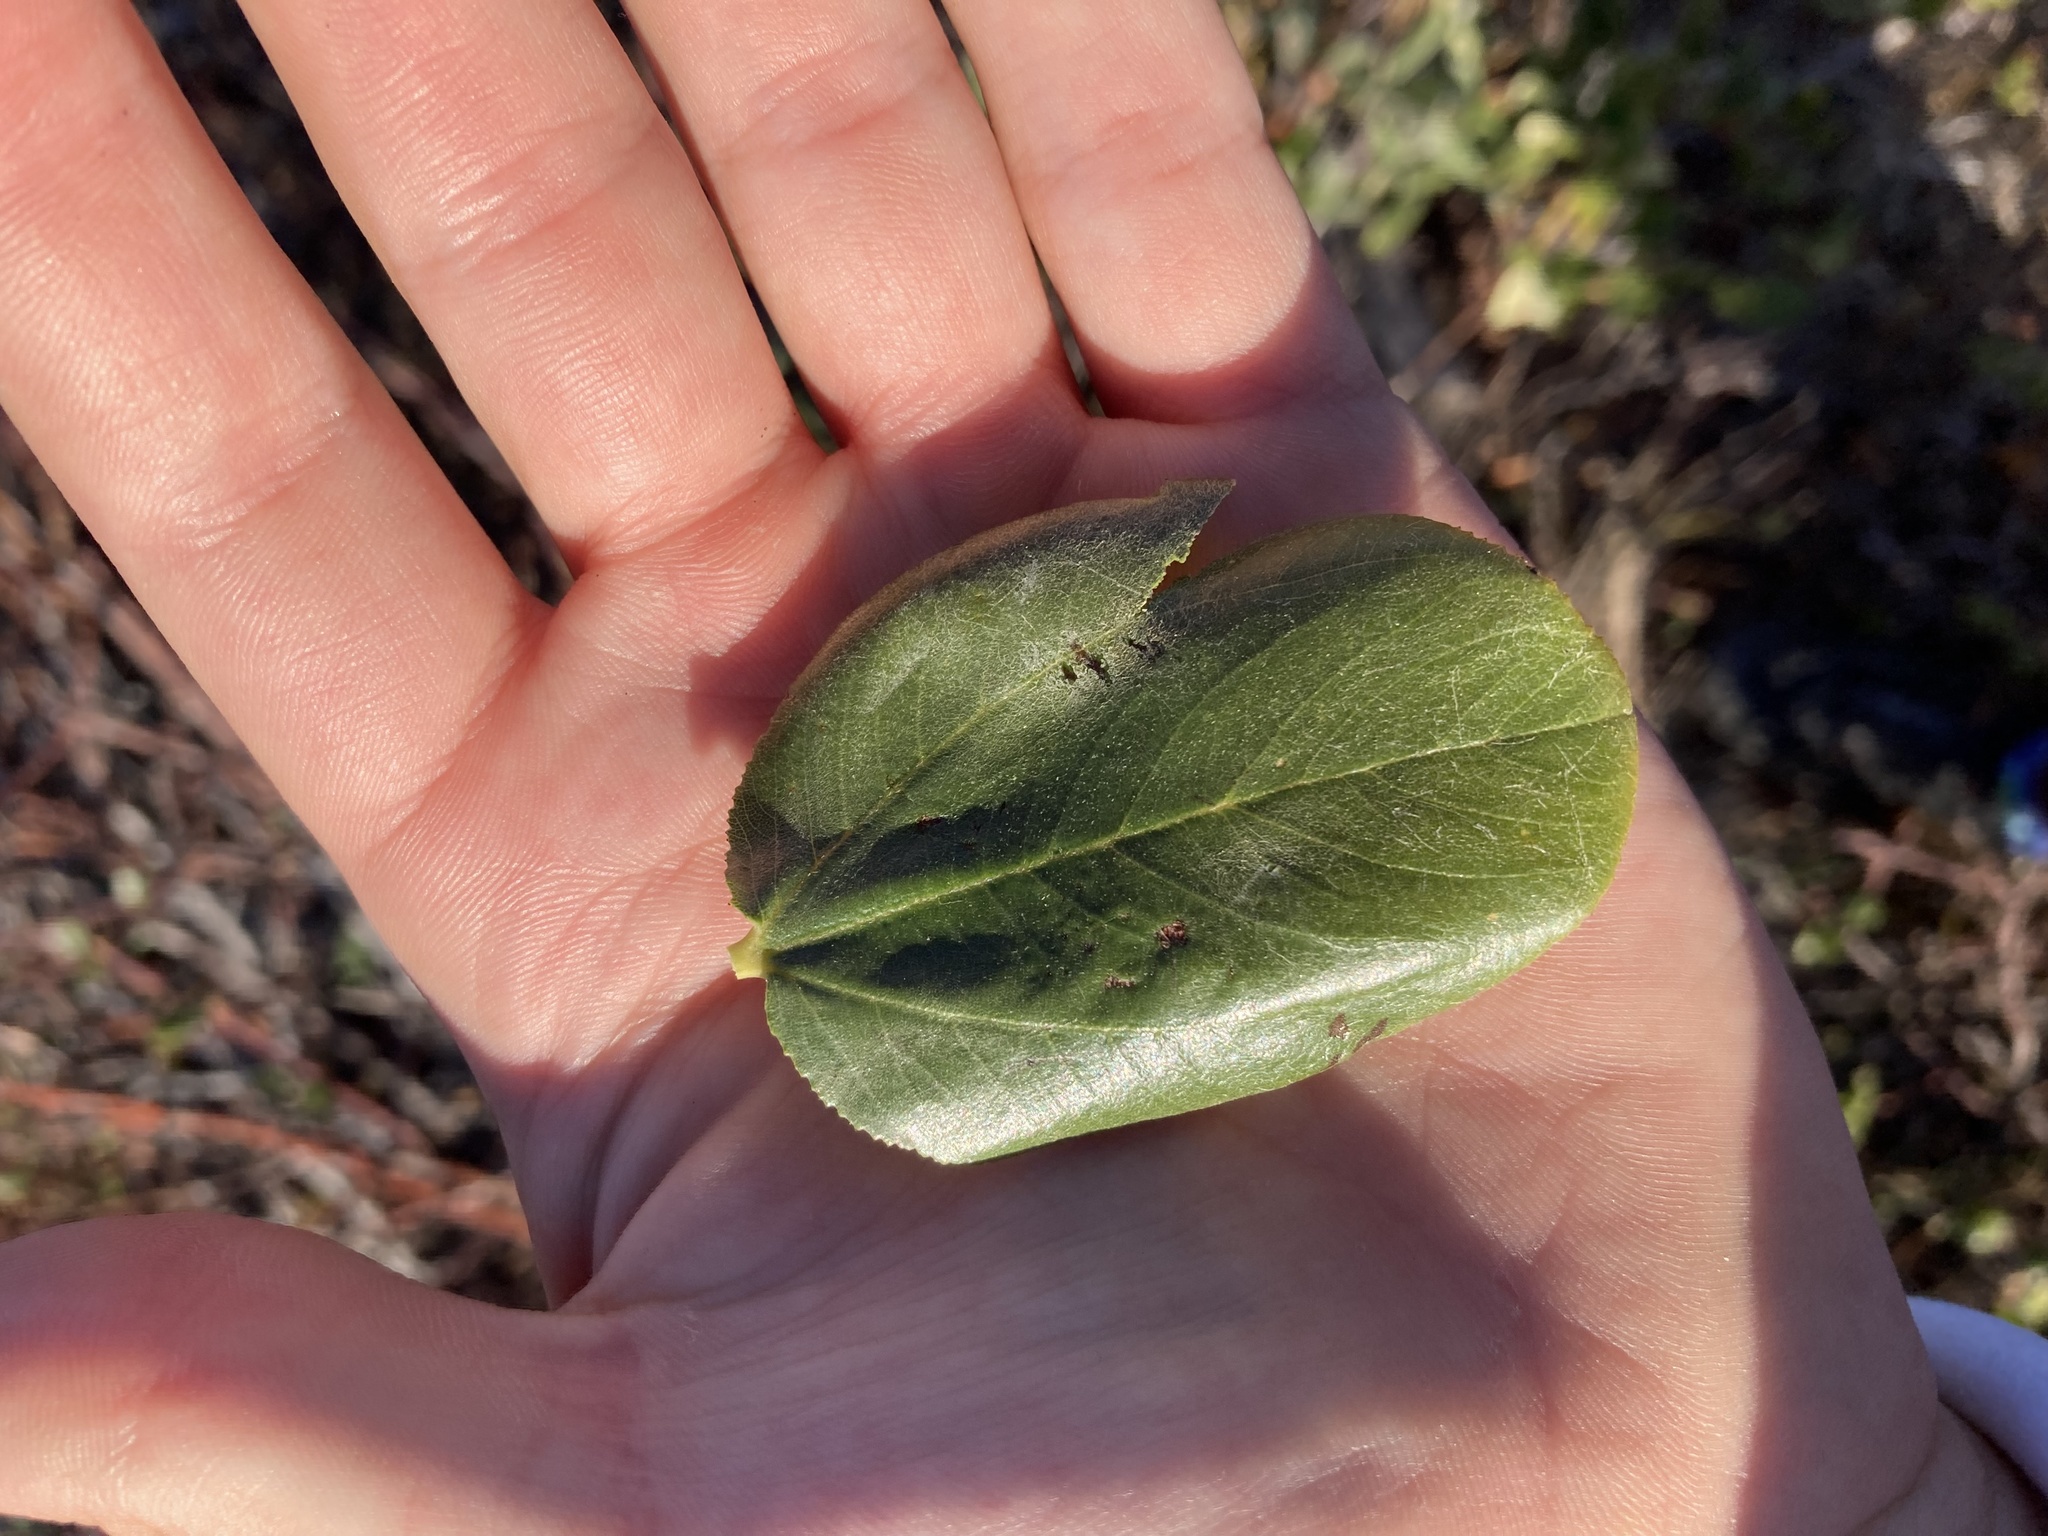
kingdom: Plantae
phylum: Tracheophyta
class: Magnoliopsida
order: Rosales
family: Rhamnaceae
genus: Ceanothus
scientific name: Ceanothus velutinus
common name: Snowbrush
